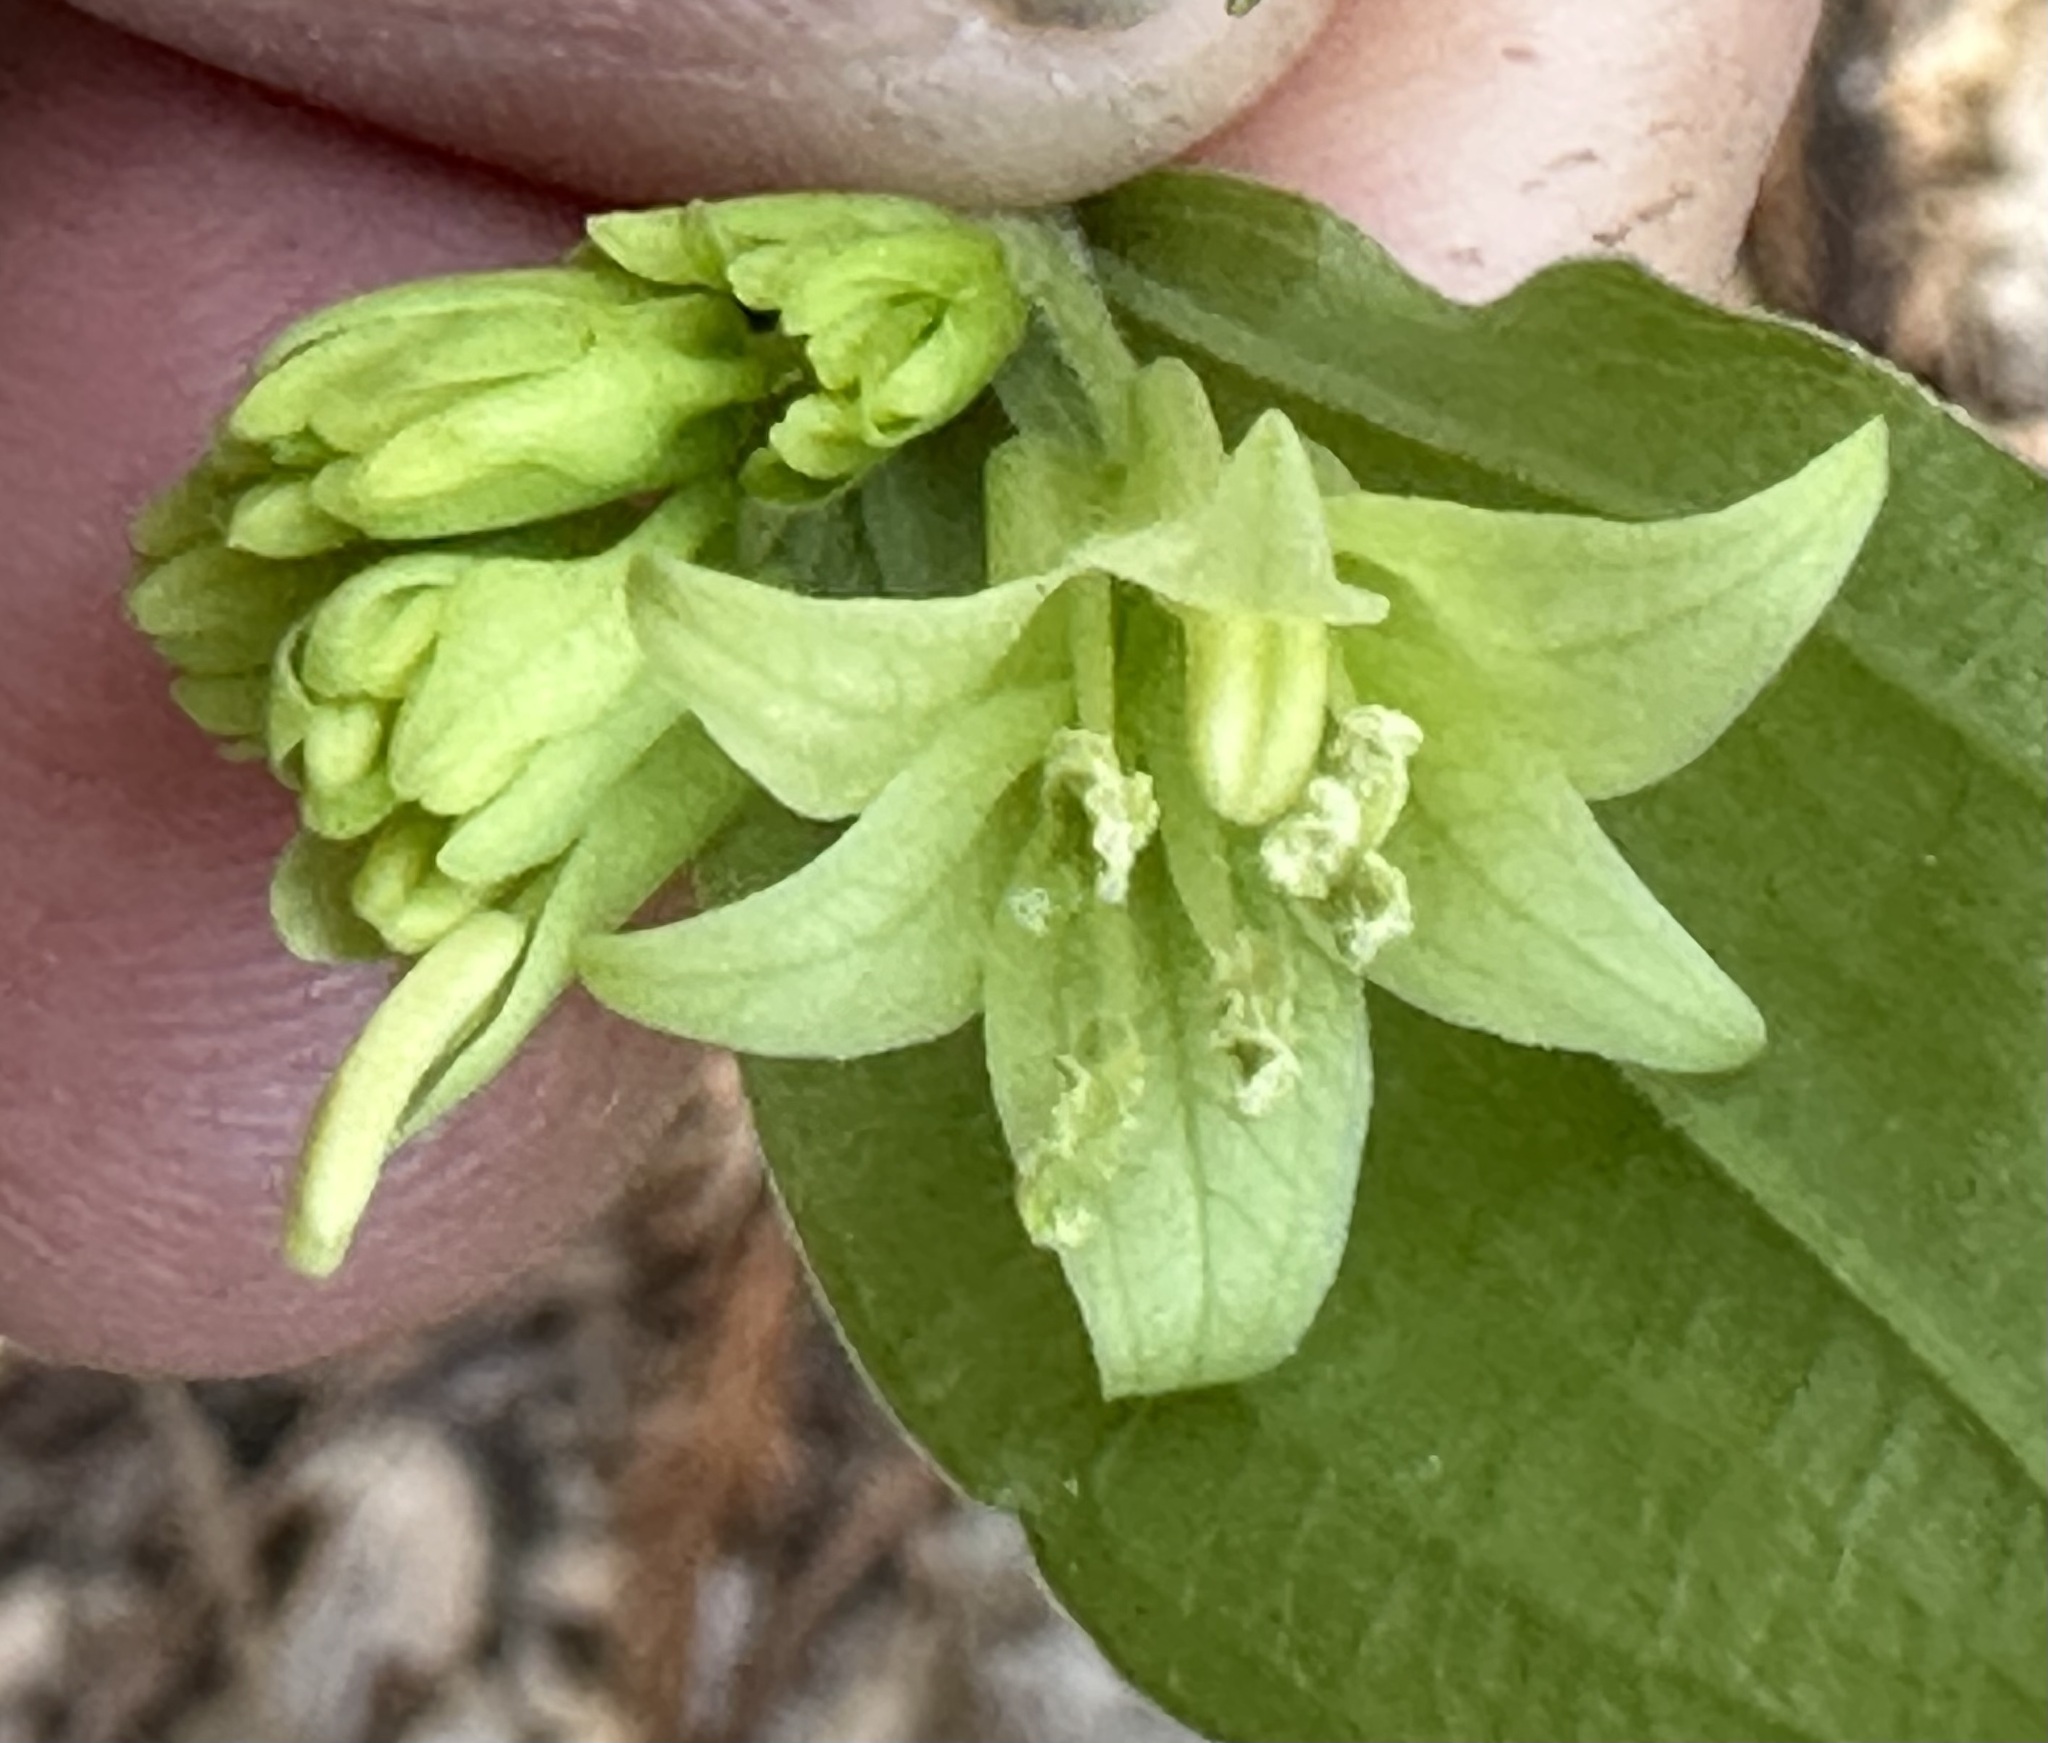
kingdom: Plantae
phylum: Tracheophyta
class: Liliopsida
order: Liliales
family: Liliaceae
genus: Prosartes
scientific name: Prosartes hookeri
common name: Fairy-bells
